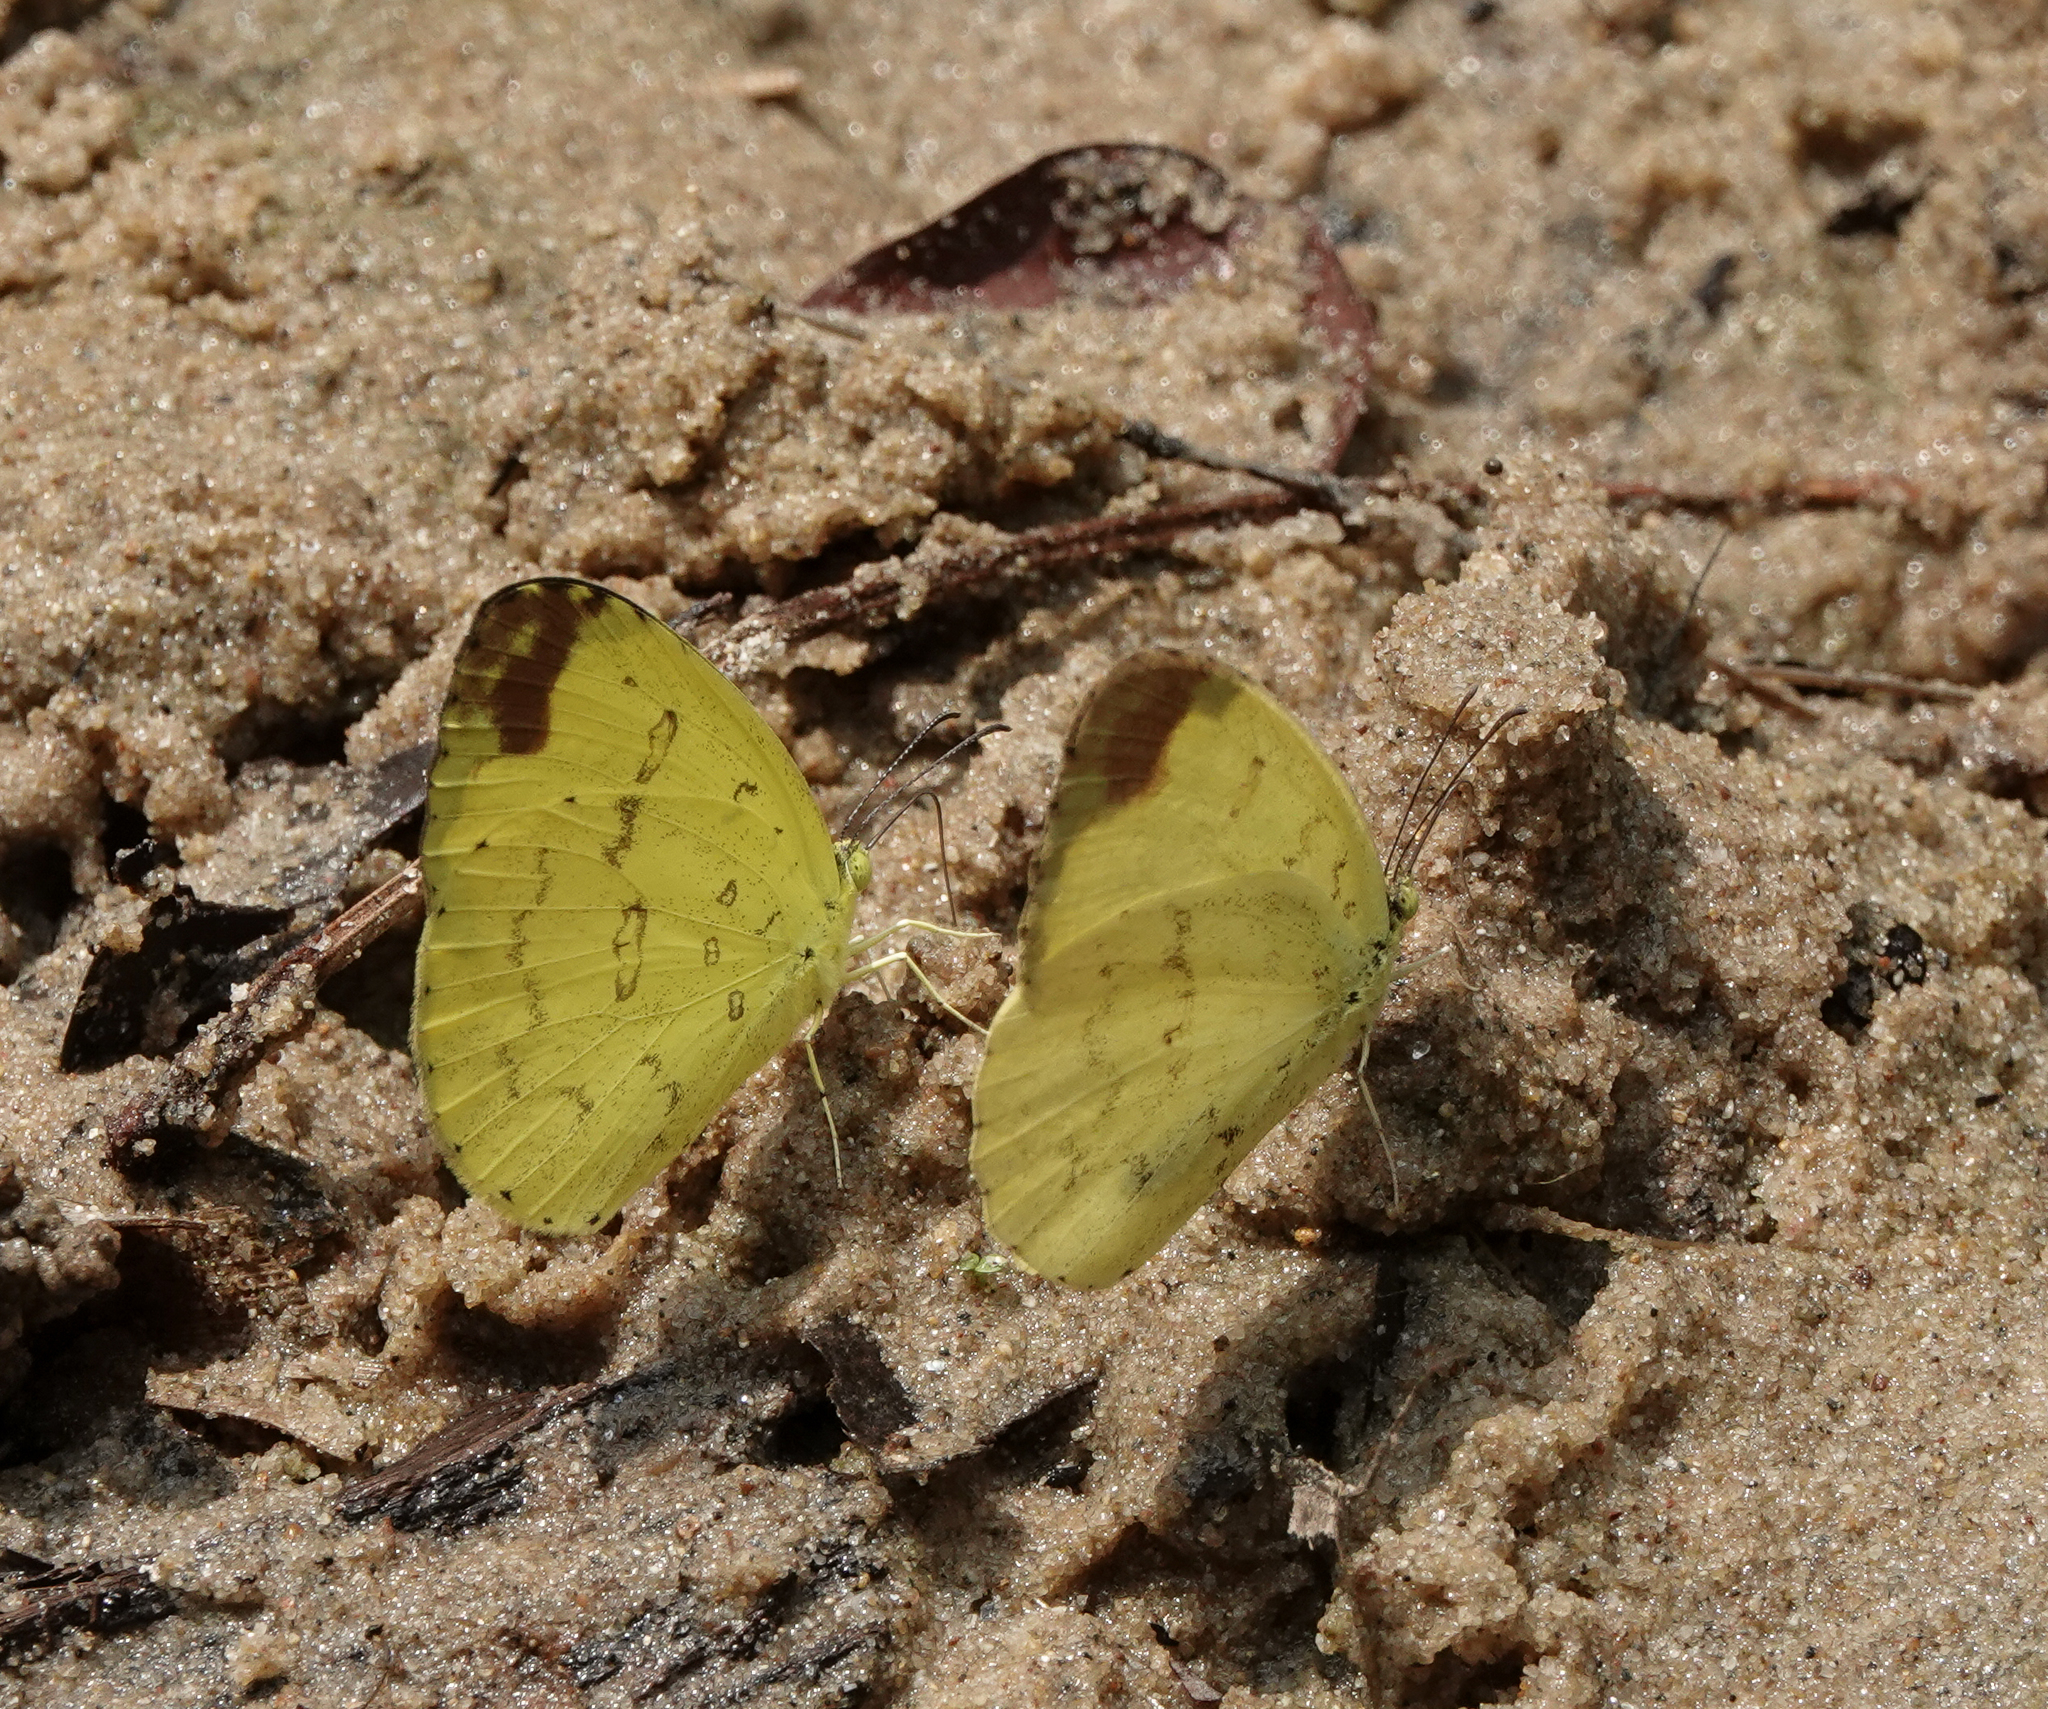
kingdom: Animalia
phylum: Arthropoda
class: Insecta
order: Lepidoptera
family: Pieridae
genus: Eurema
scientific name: Eurema blanda
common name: Three-spot grass yellow
